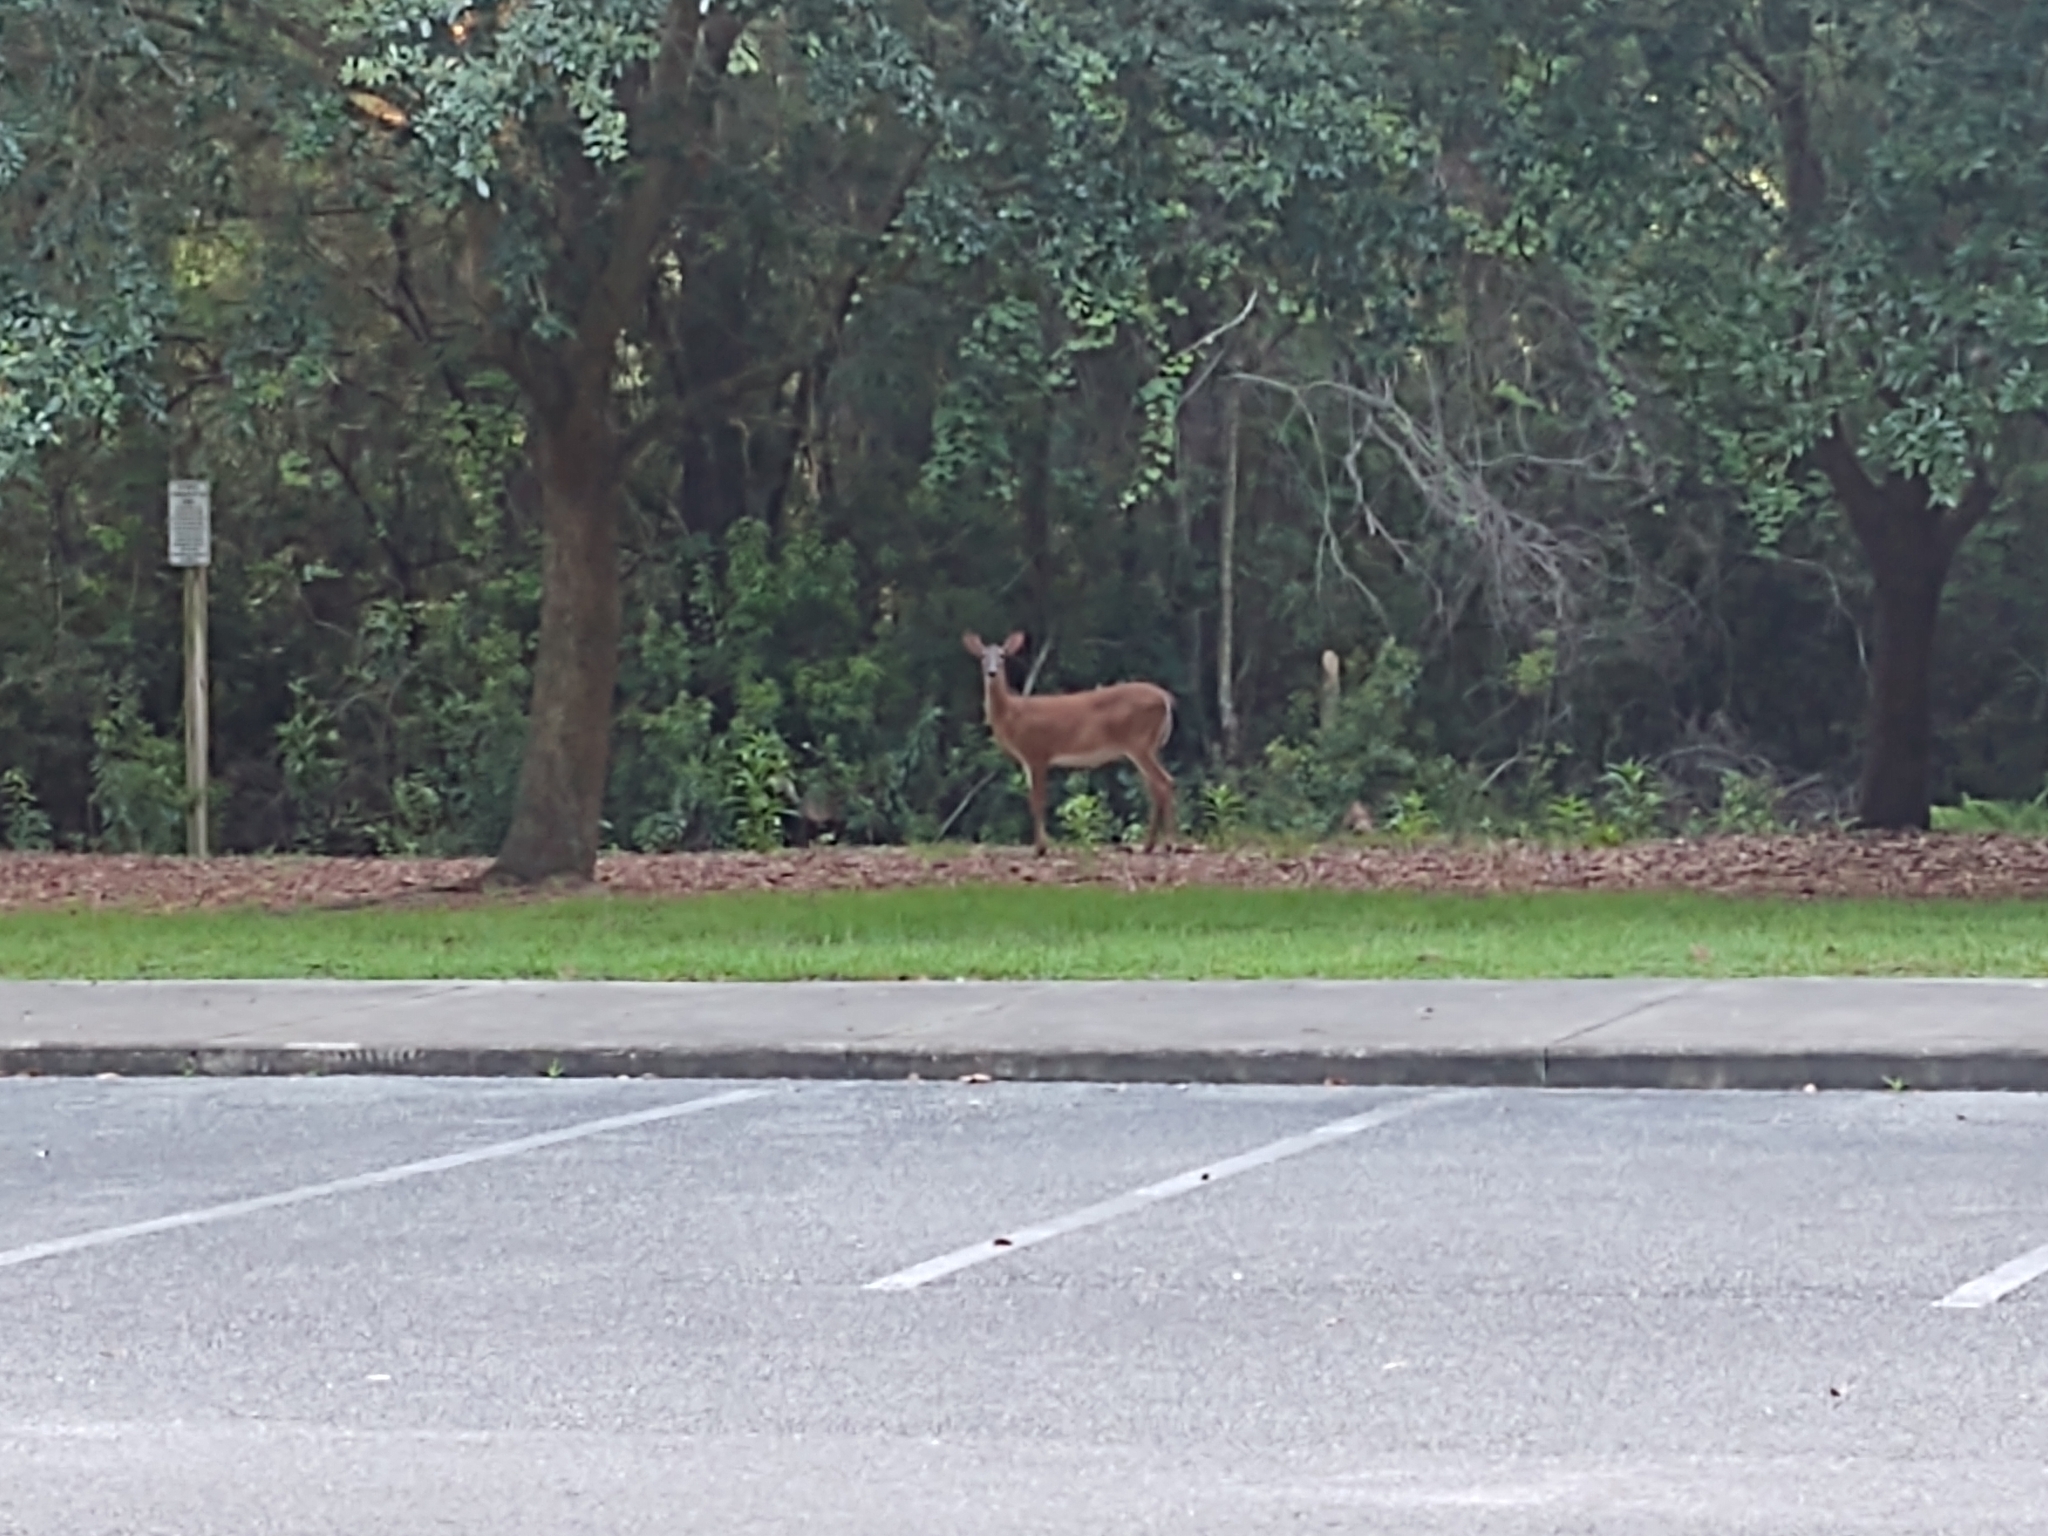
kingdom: Animalia
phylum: Chordata
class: Mammalia
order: Artiodactyla
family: Cervidae
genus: Odocoileus
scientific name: Odocoileus virginianus
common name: White-tailed deer
